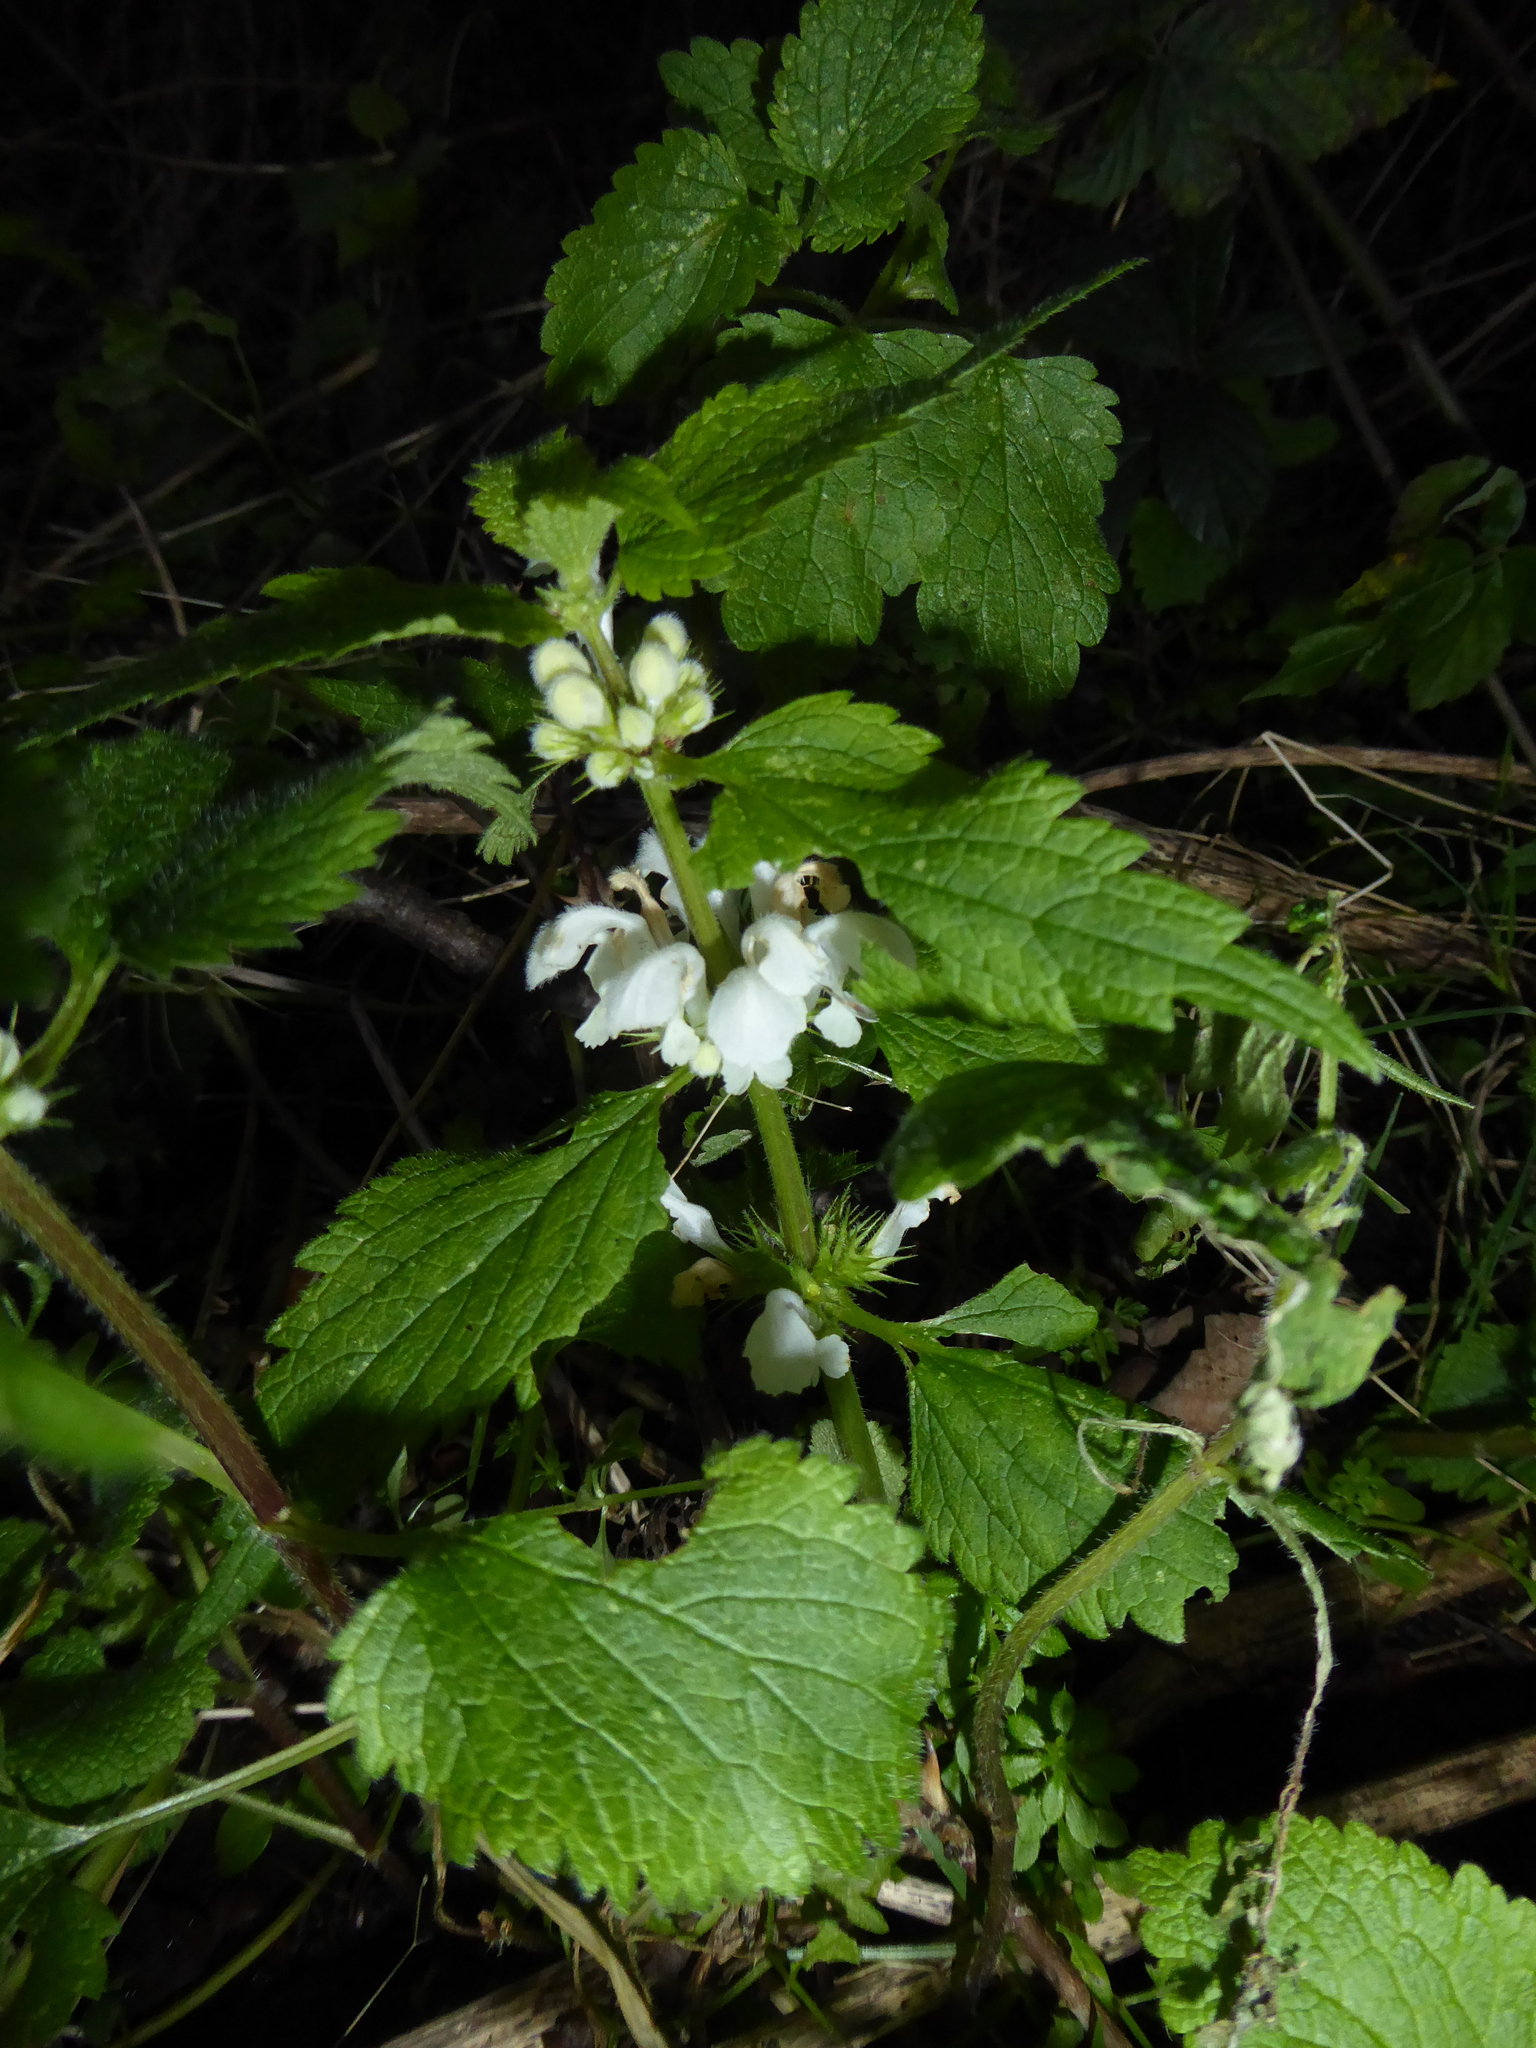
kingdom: Plantae
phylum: Tracheophyta
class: Magnoliopsida
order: Lamiales
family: Lamiaceae
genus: Lamium
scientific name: Lamium album
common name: White dead-nettle
